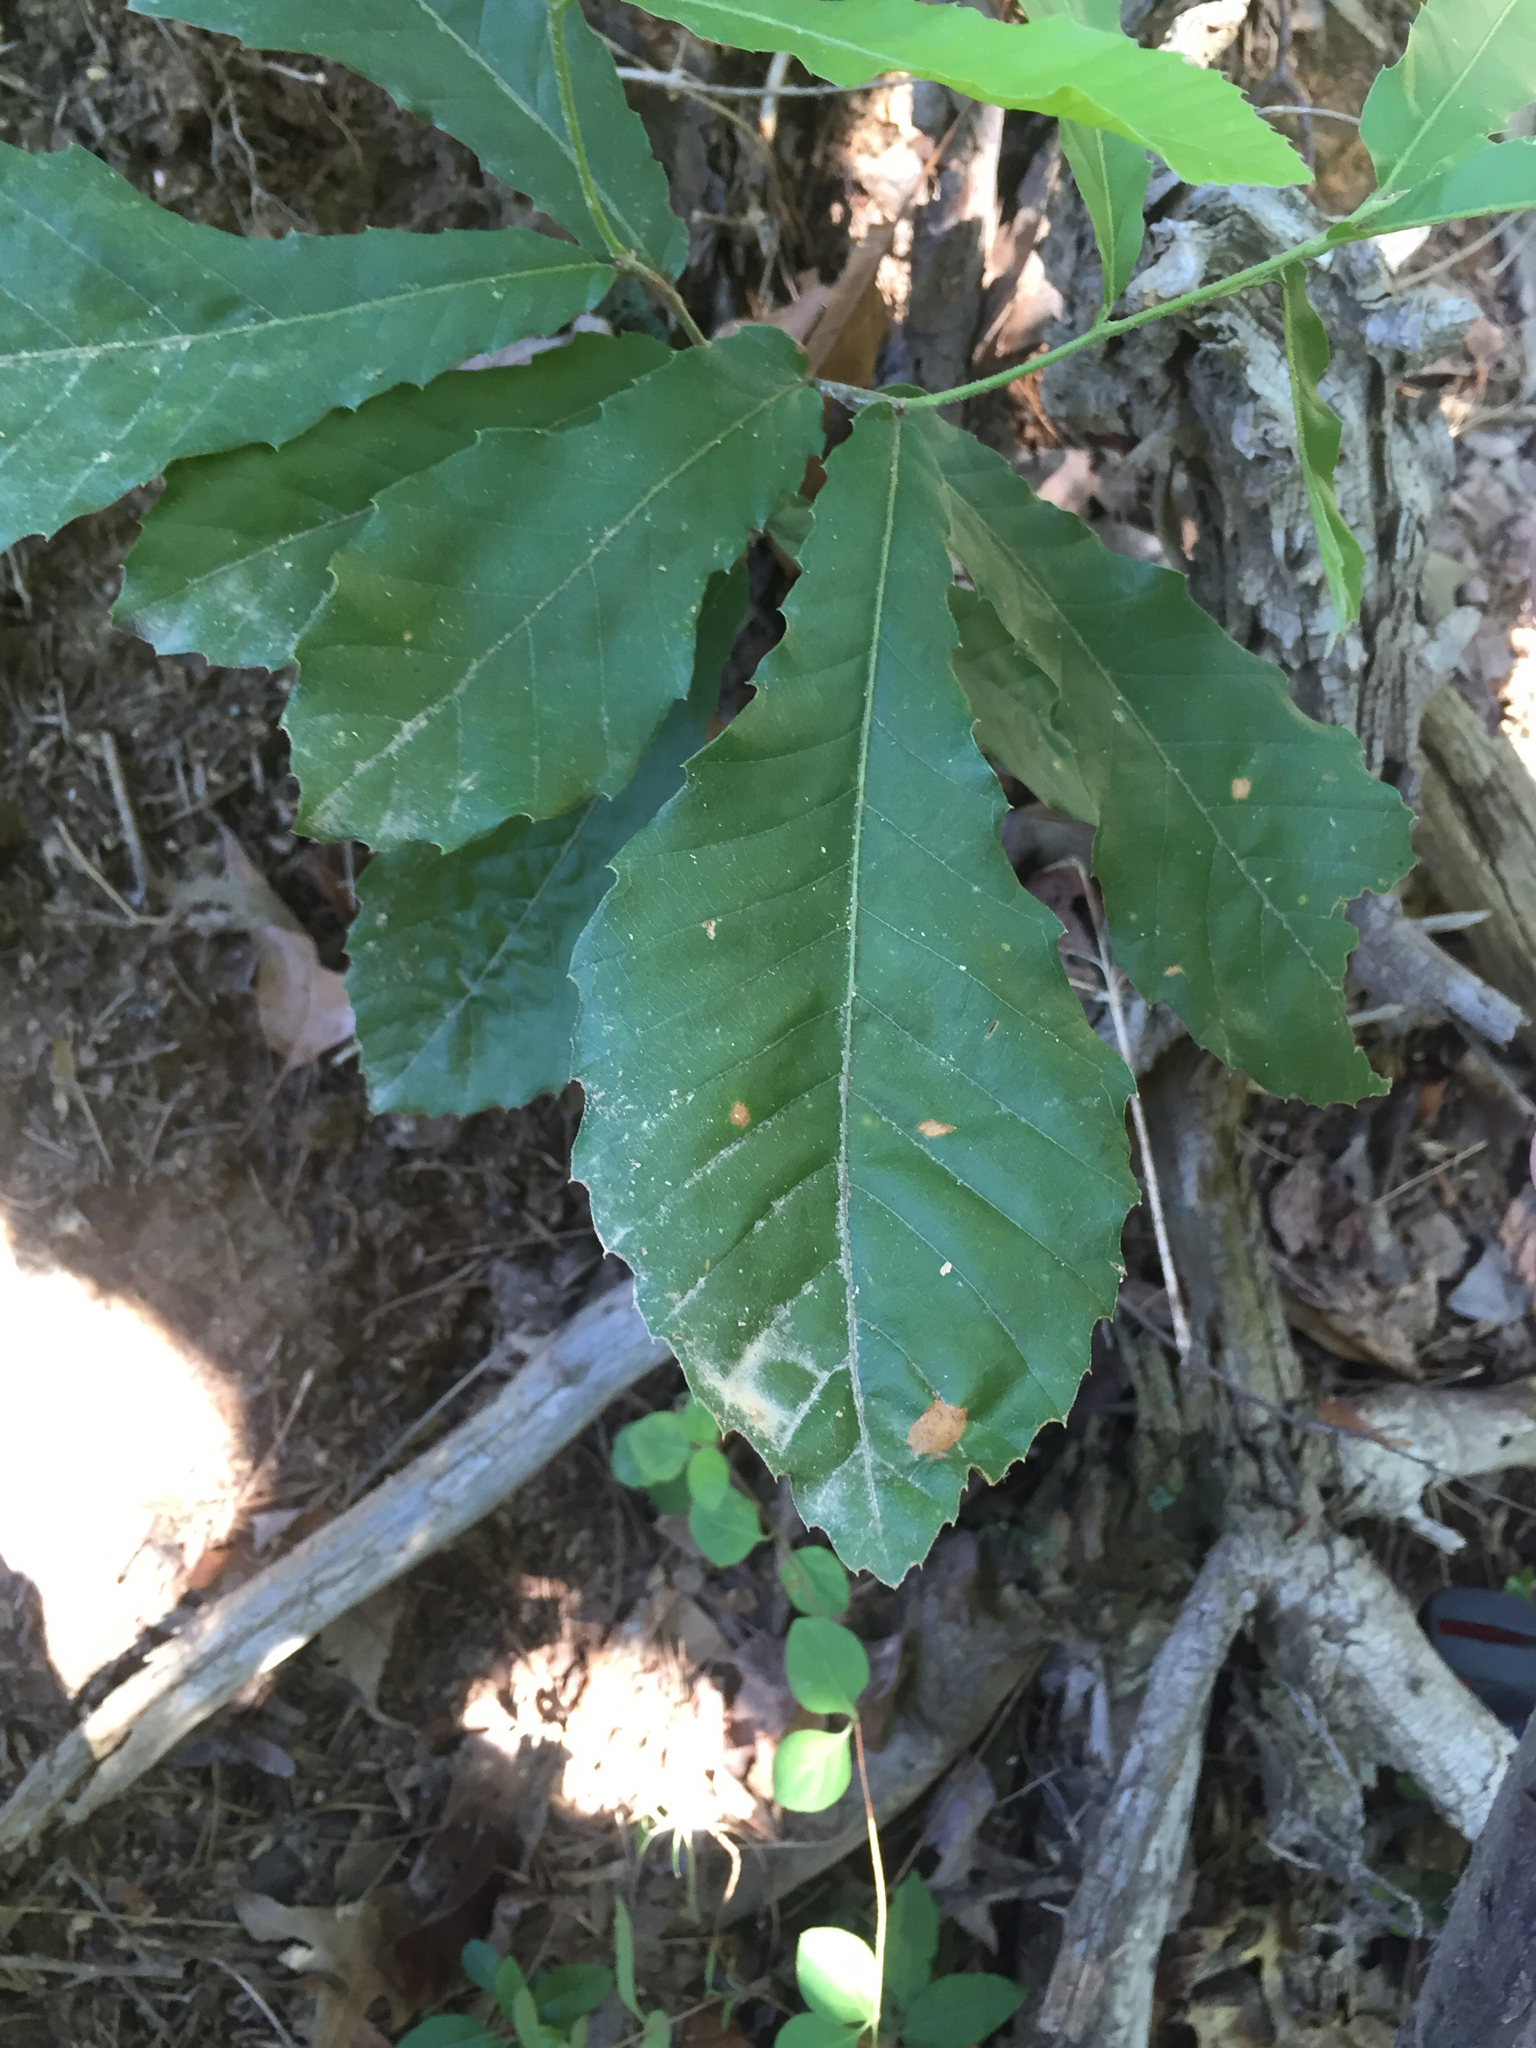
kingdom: Plantae
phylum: Tracheophyta
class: Magnoliopsida
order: Fagales
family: Fagaceae
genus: Castanea
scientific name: Castanea mollissima
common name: Chinese chestnut
